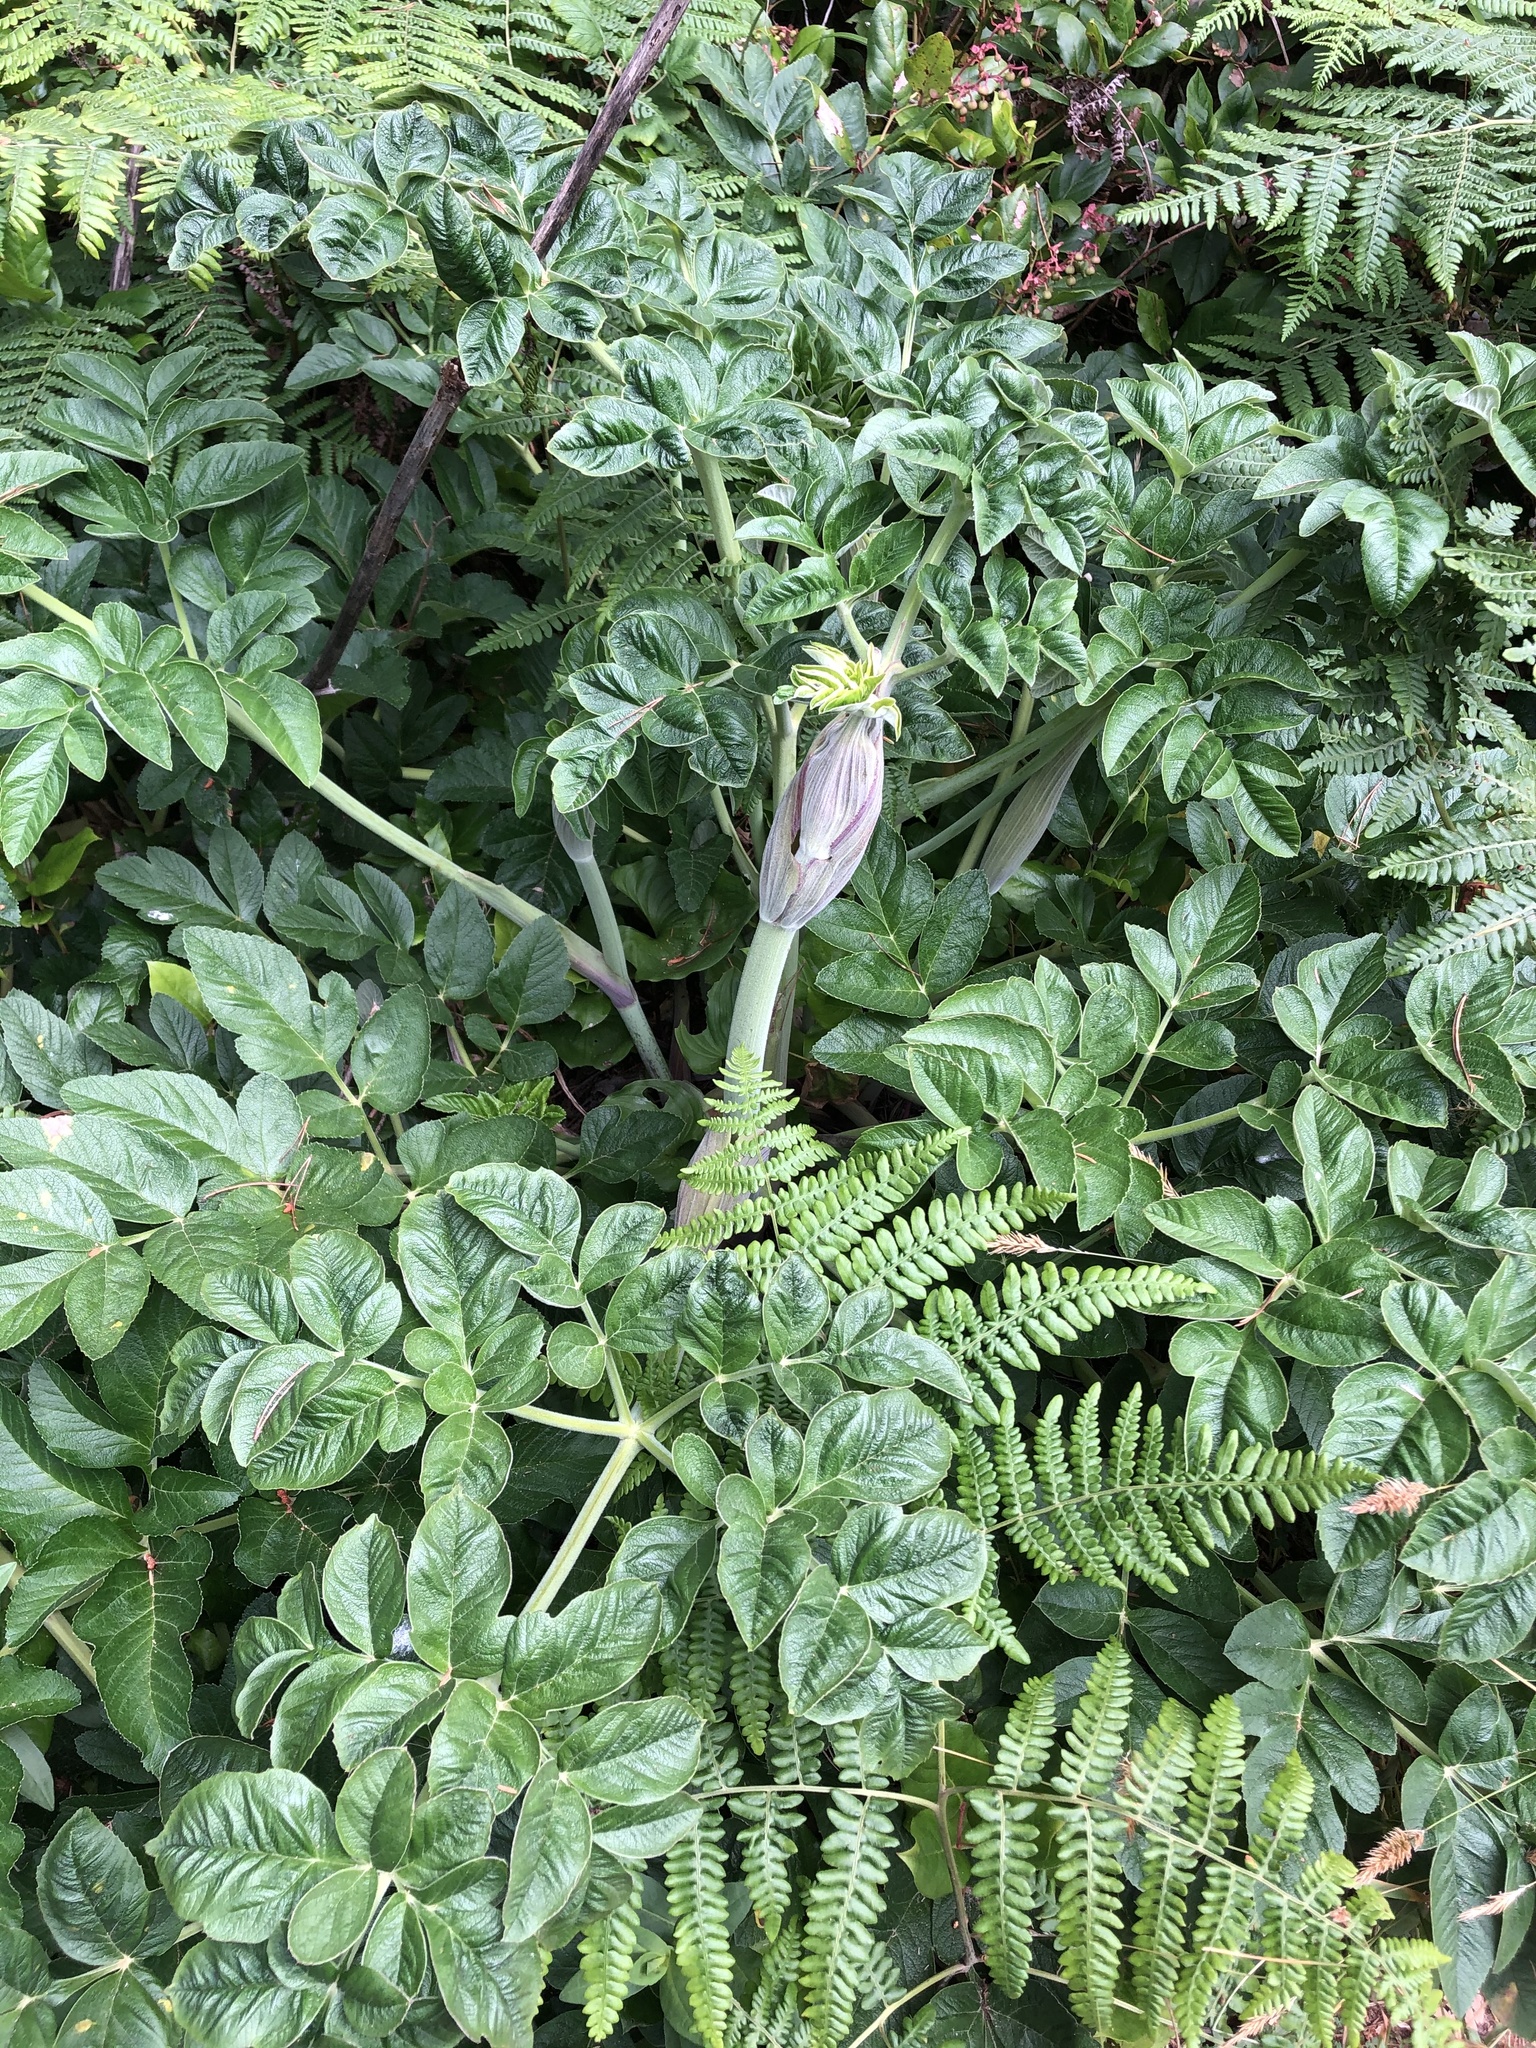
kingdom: Plantae
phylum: Tracheophyta
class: Magnoliopsida
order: Apiales
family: Apiaceae
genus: Angelica
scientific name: Angelica hendersonii
